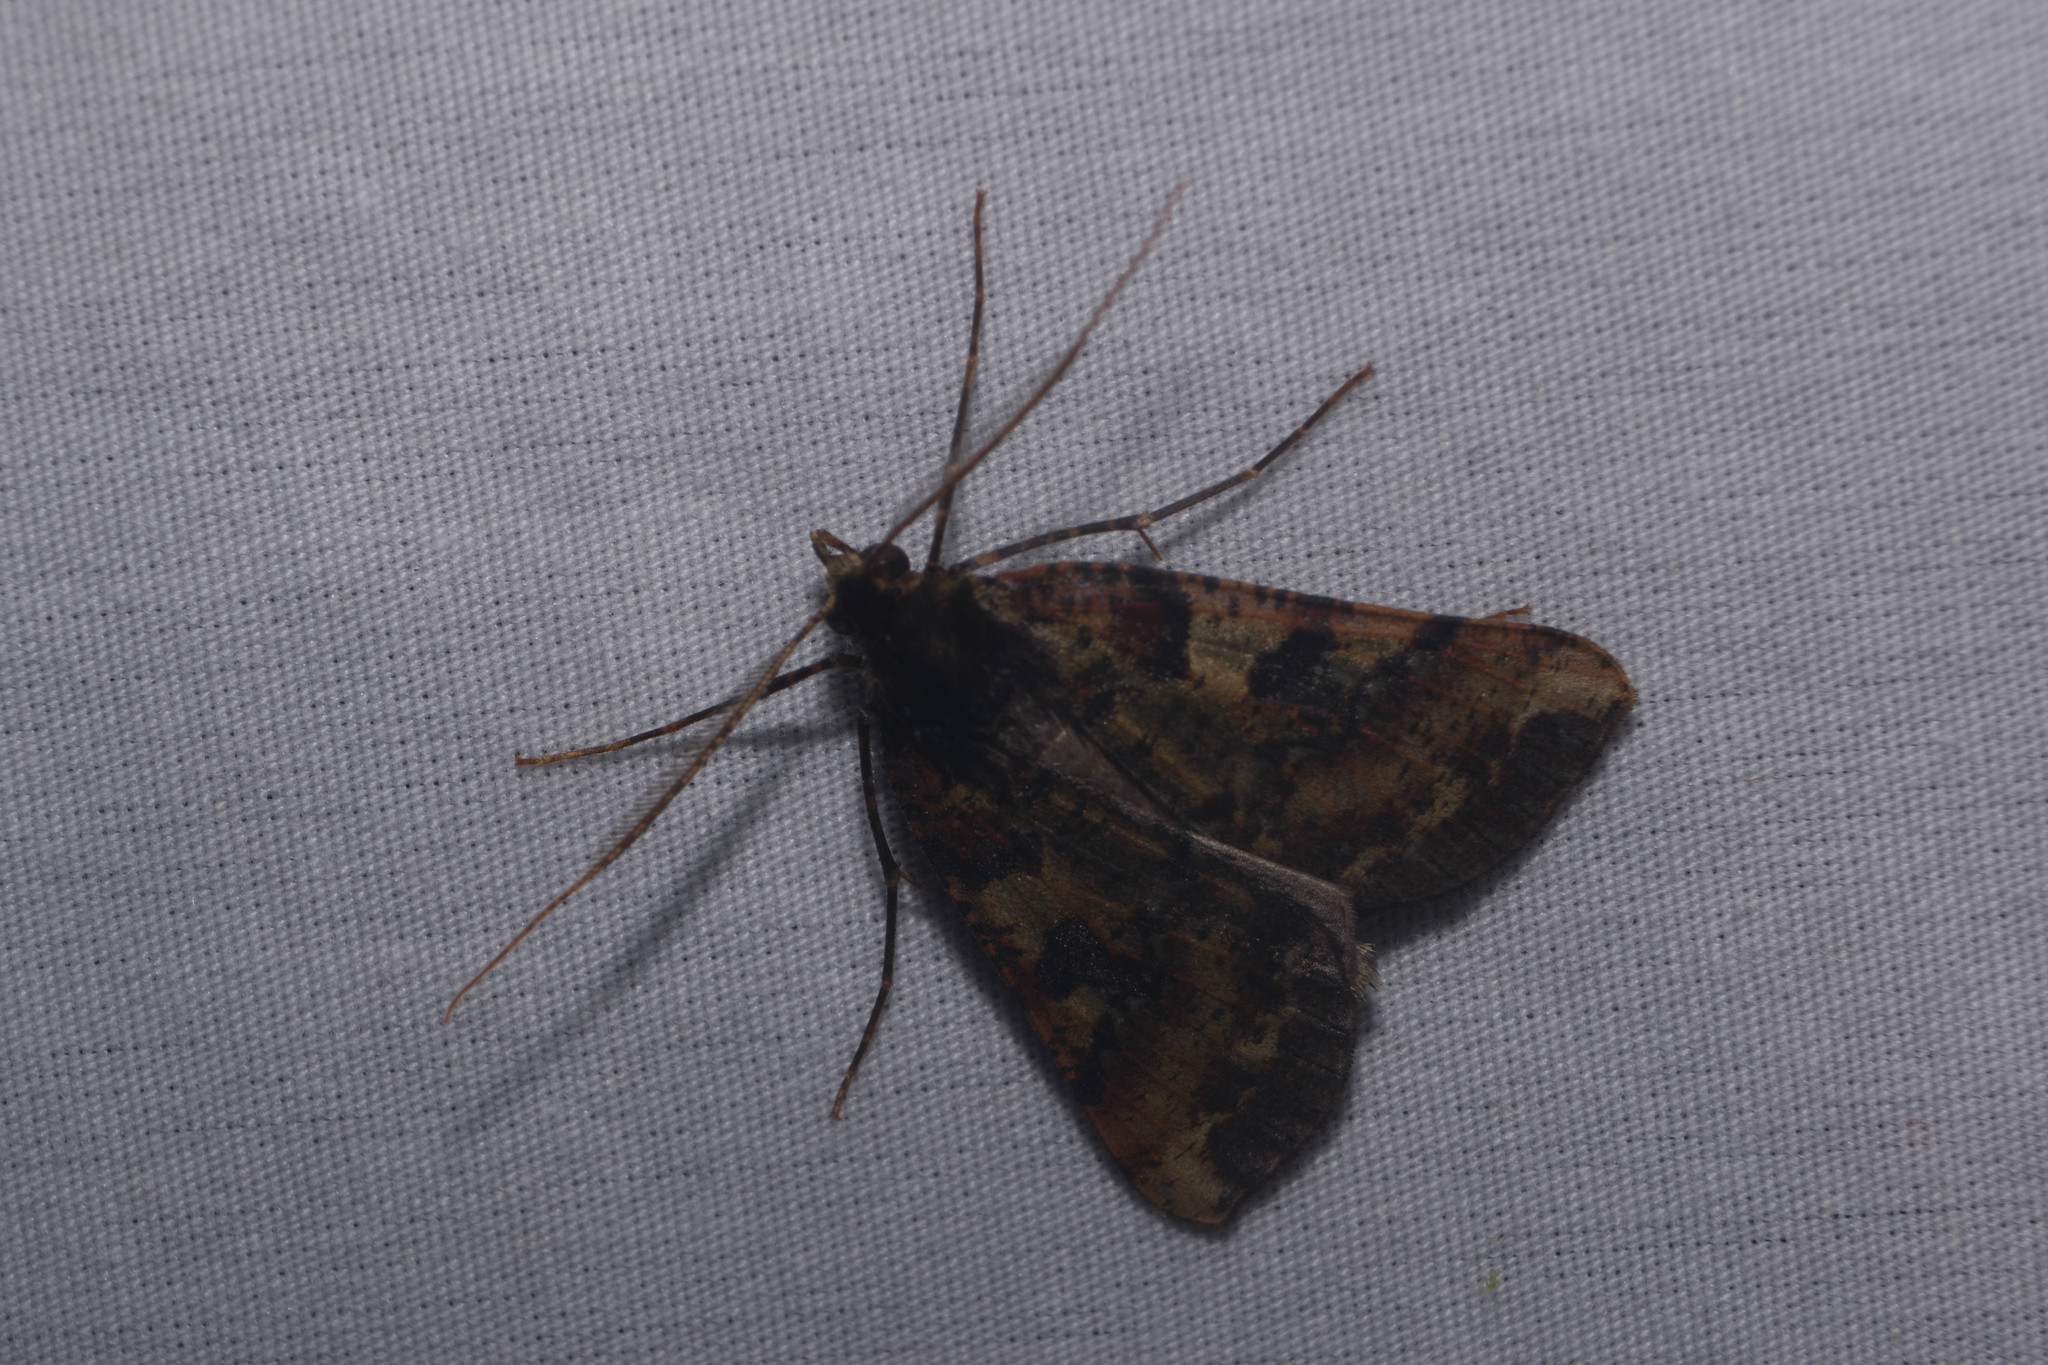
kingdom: Animalia
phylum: Arthropoda
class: Insecta
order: Lepidoptera
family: Geometridae
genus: Scotorythra
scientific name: Scotorythra pachyspila
